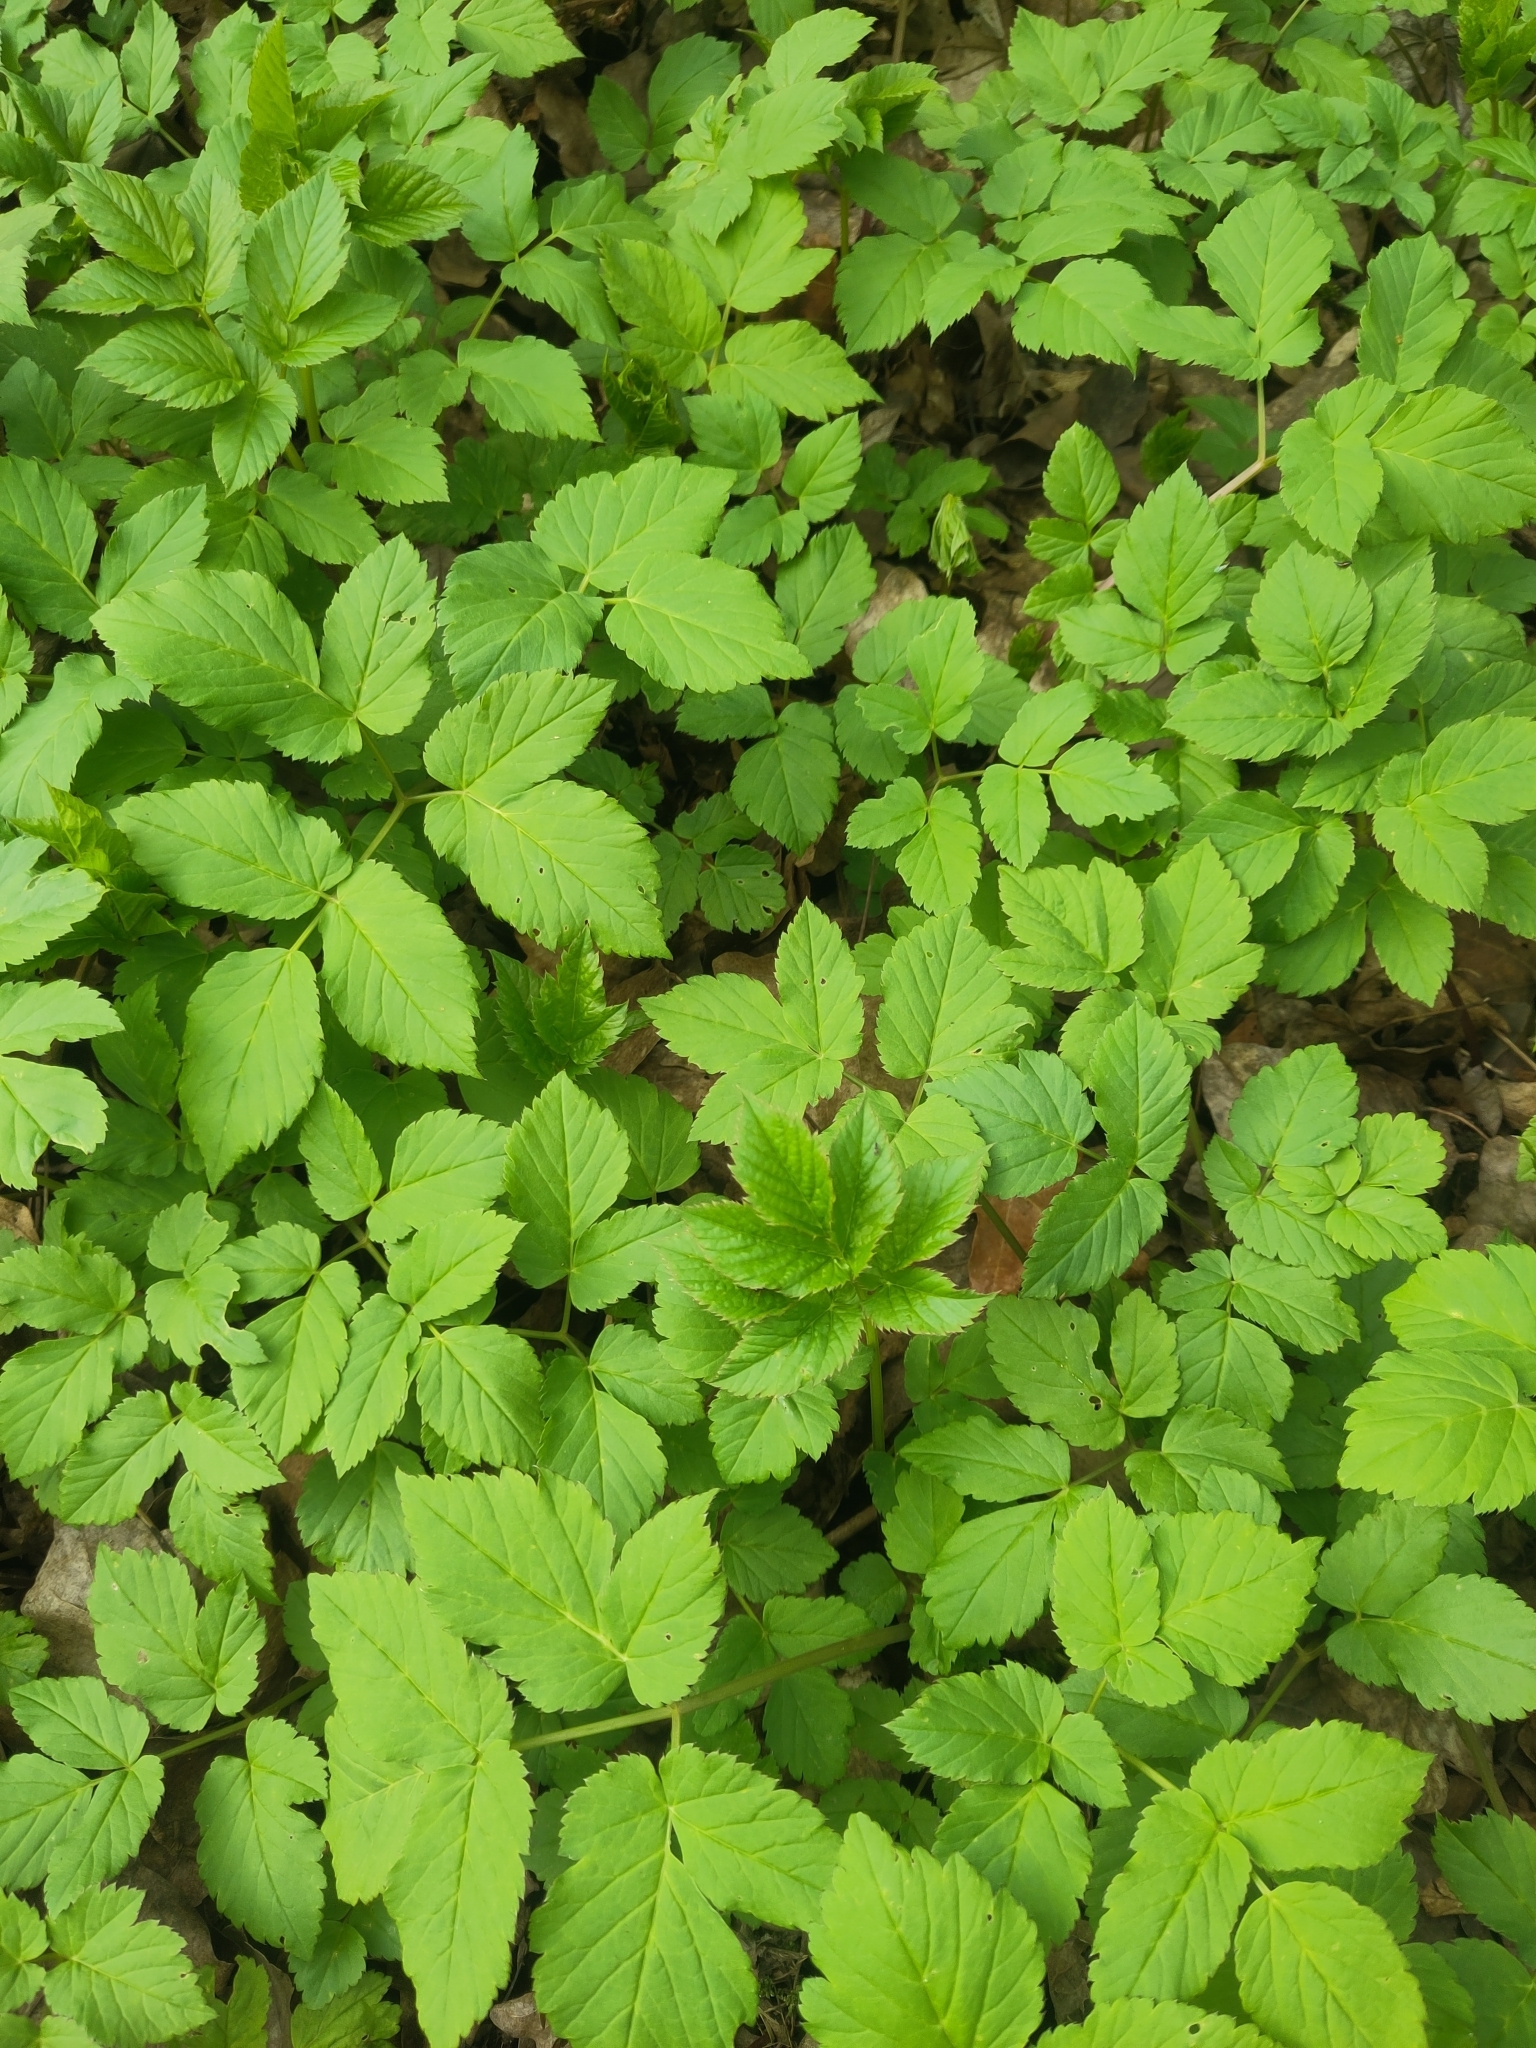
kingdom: Plantae
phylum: Tracheophyta
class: Magnoliopsida
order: Apiales
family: Apiaceae
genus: Aegopodium
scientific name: Aegopodium podagraria
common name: Ground-elder
